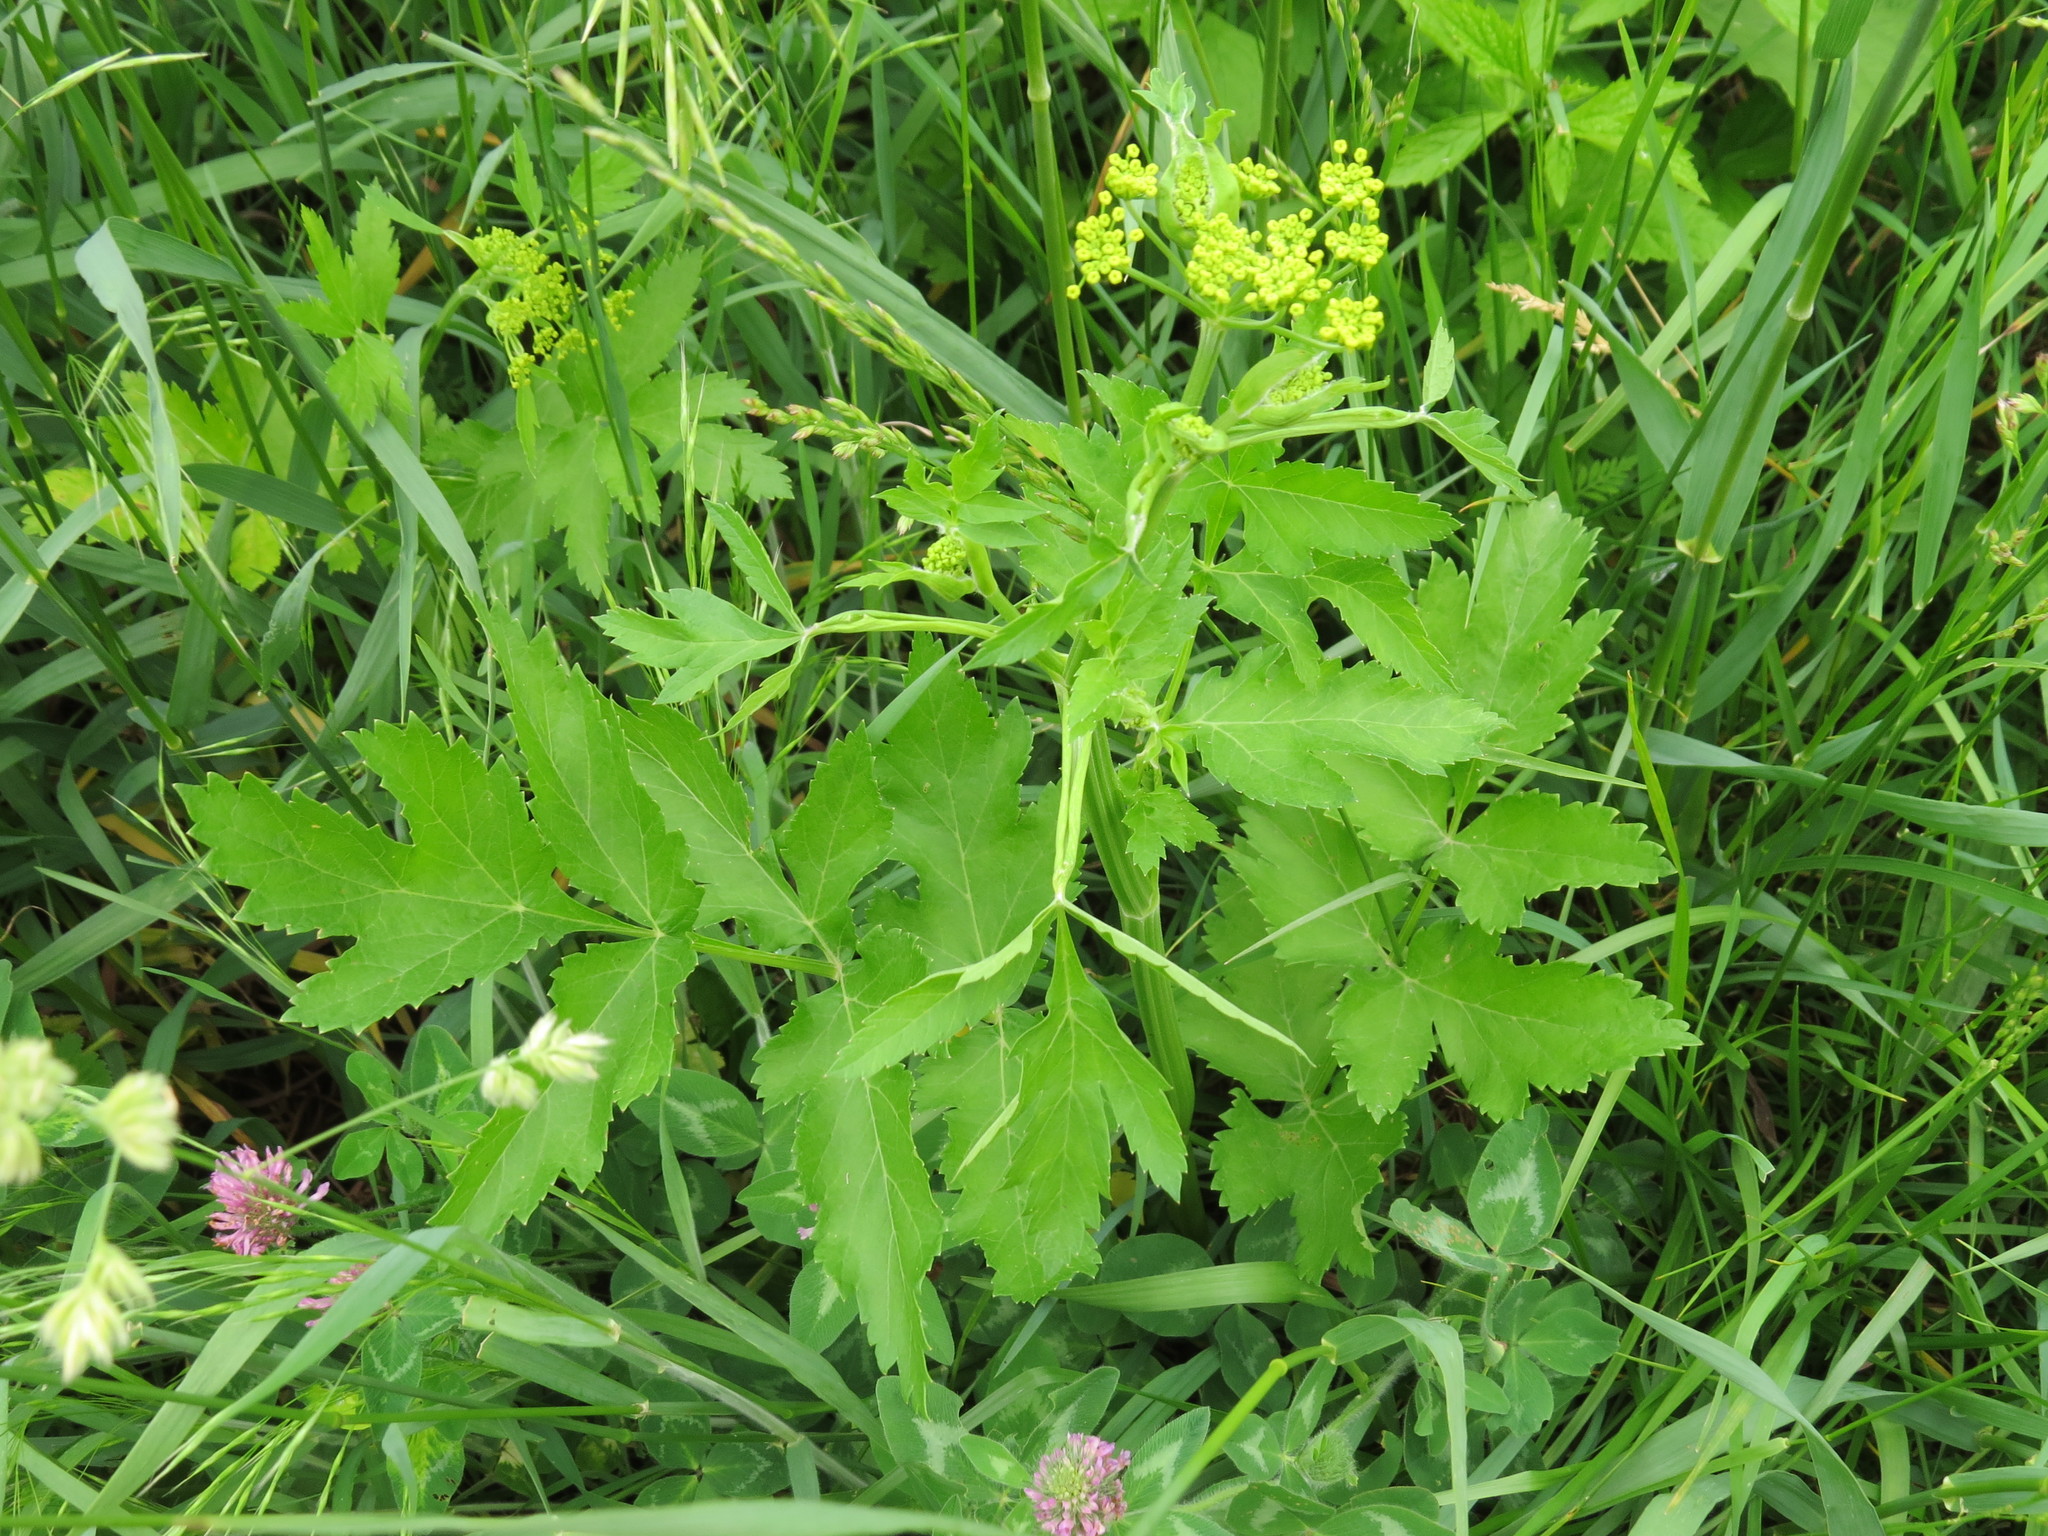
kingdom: Plantae
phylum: Tracheophyta
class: Magnoliopsida
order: Apiales
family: Apiaceae
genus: Pastinaca
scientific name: Pastinaca sativa
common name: Wild parsnip
